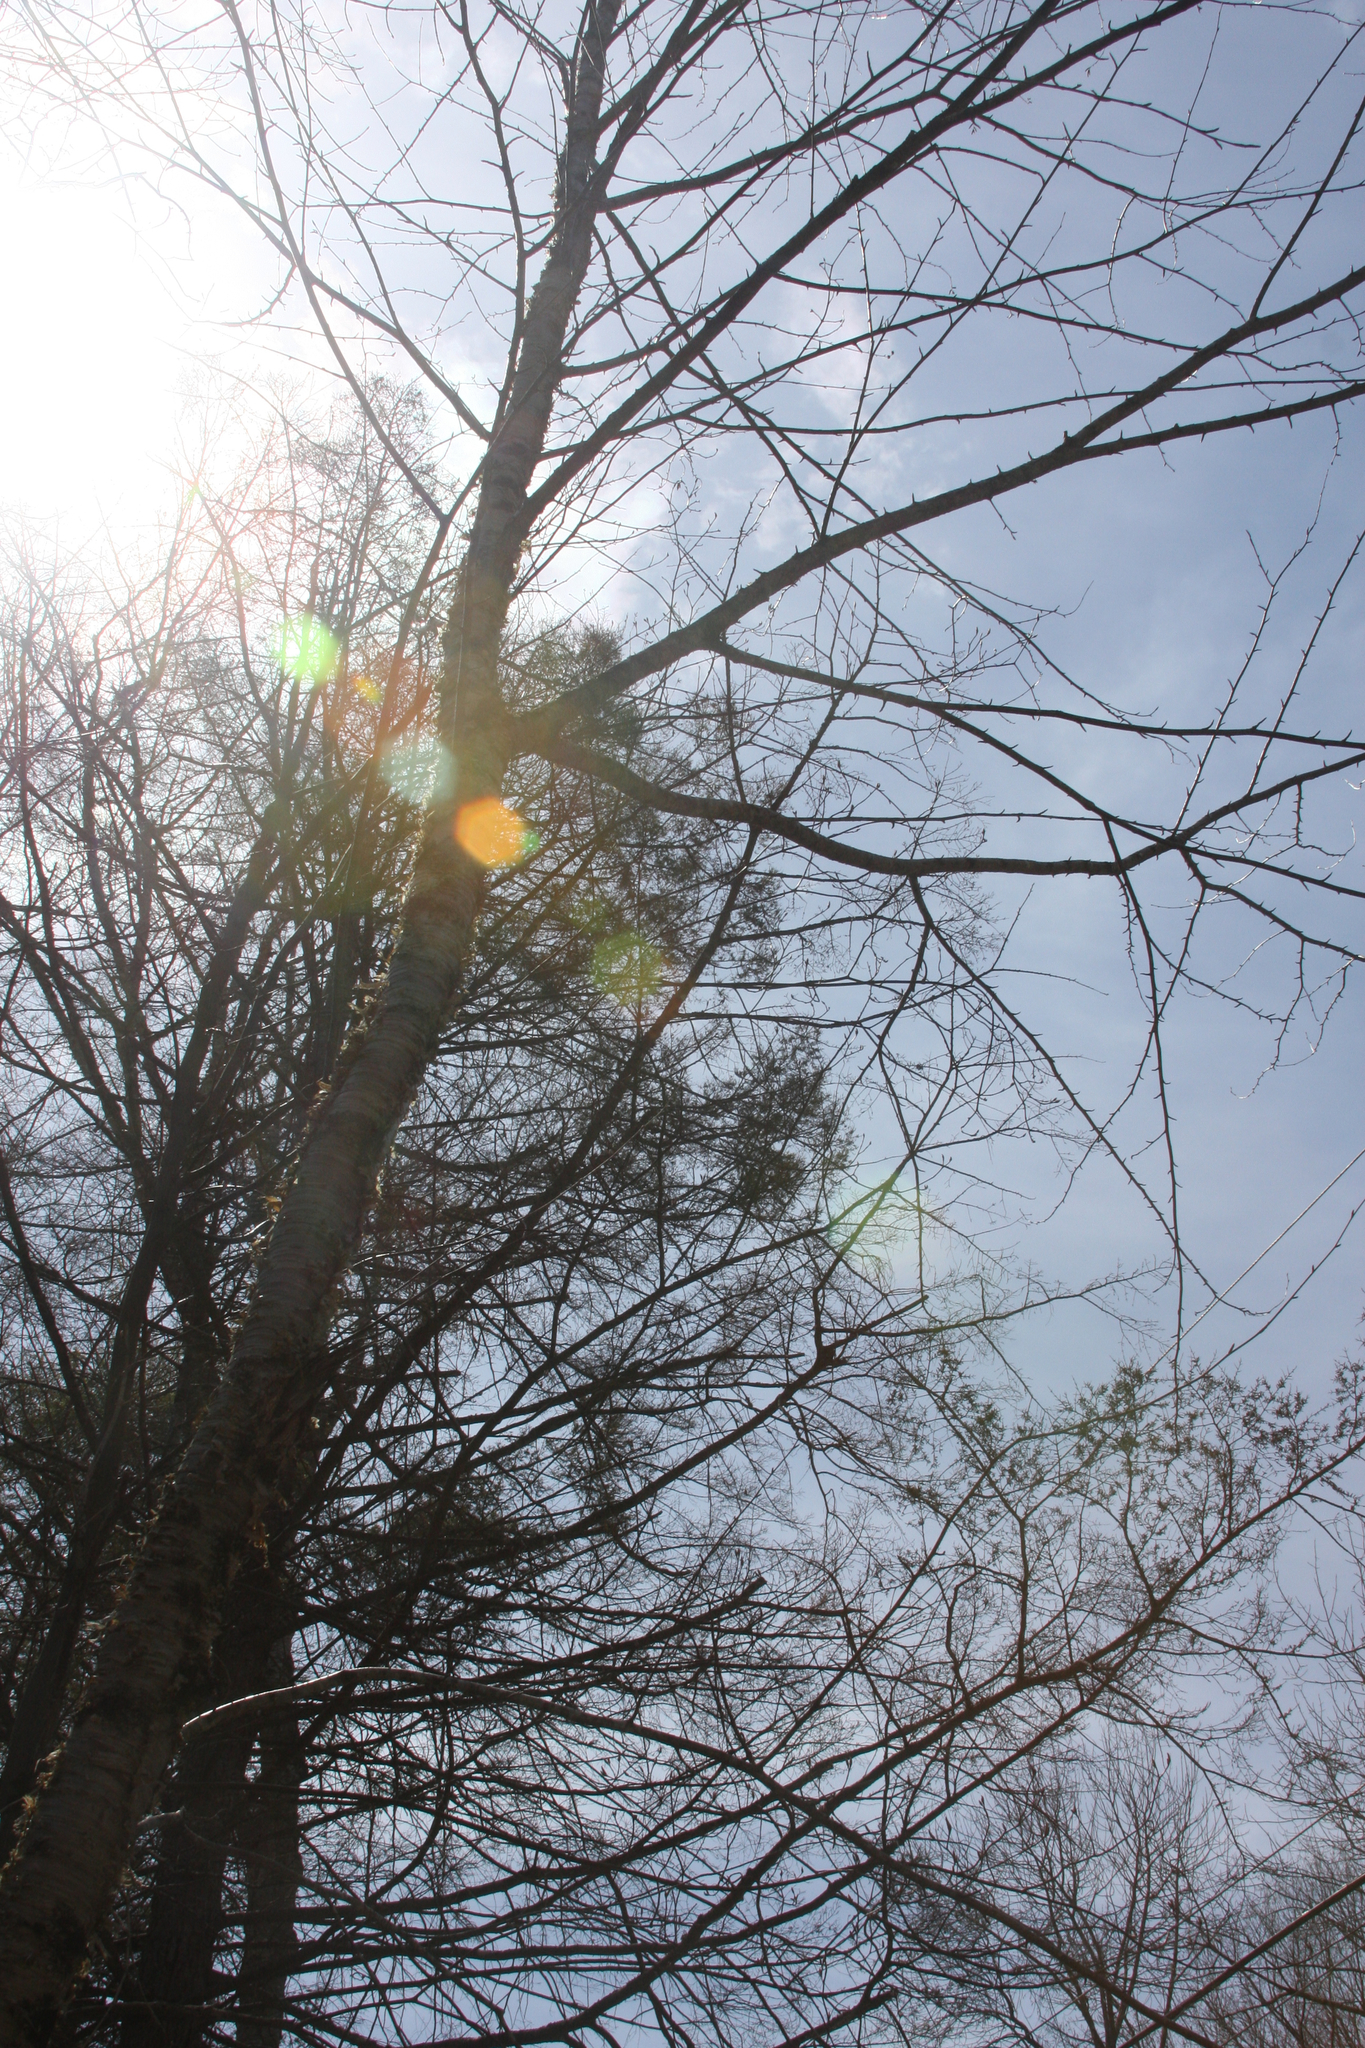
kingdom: Plantae
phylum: Tracheophyta
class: Magnoliopsida
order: Fagales
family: Betulaceae
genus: Betula
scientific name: Betula alleghaniensis
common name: Yellow birch
